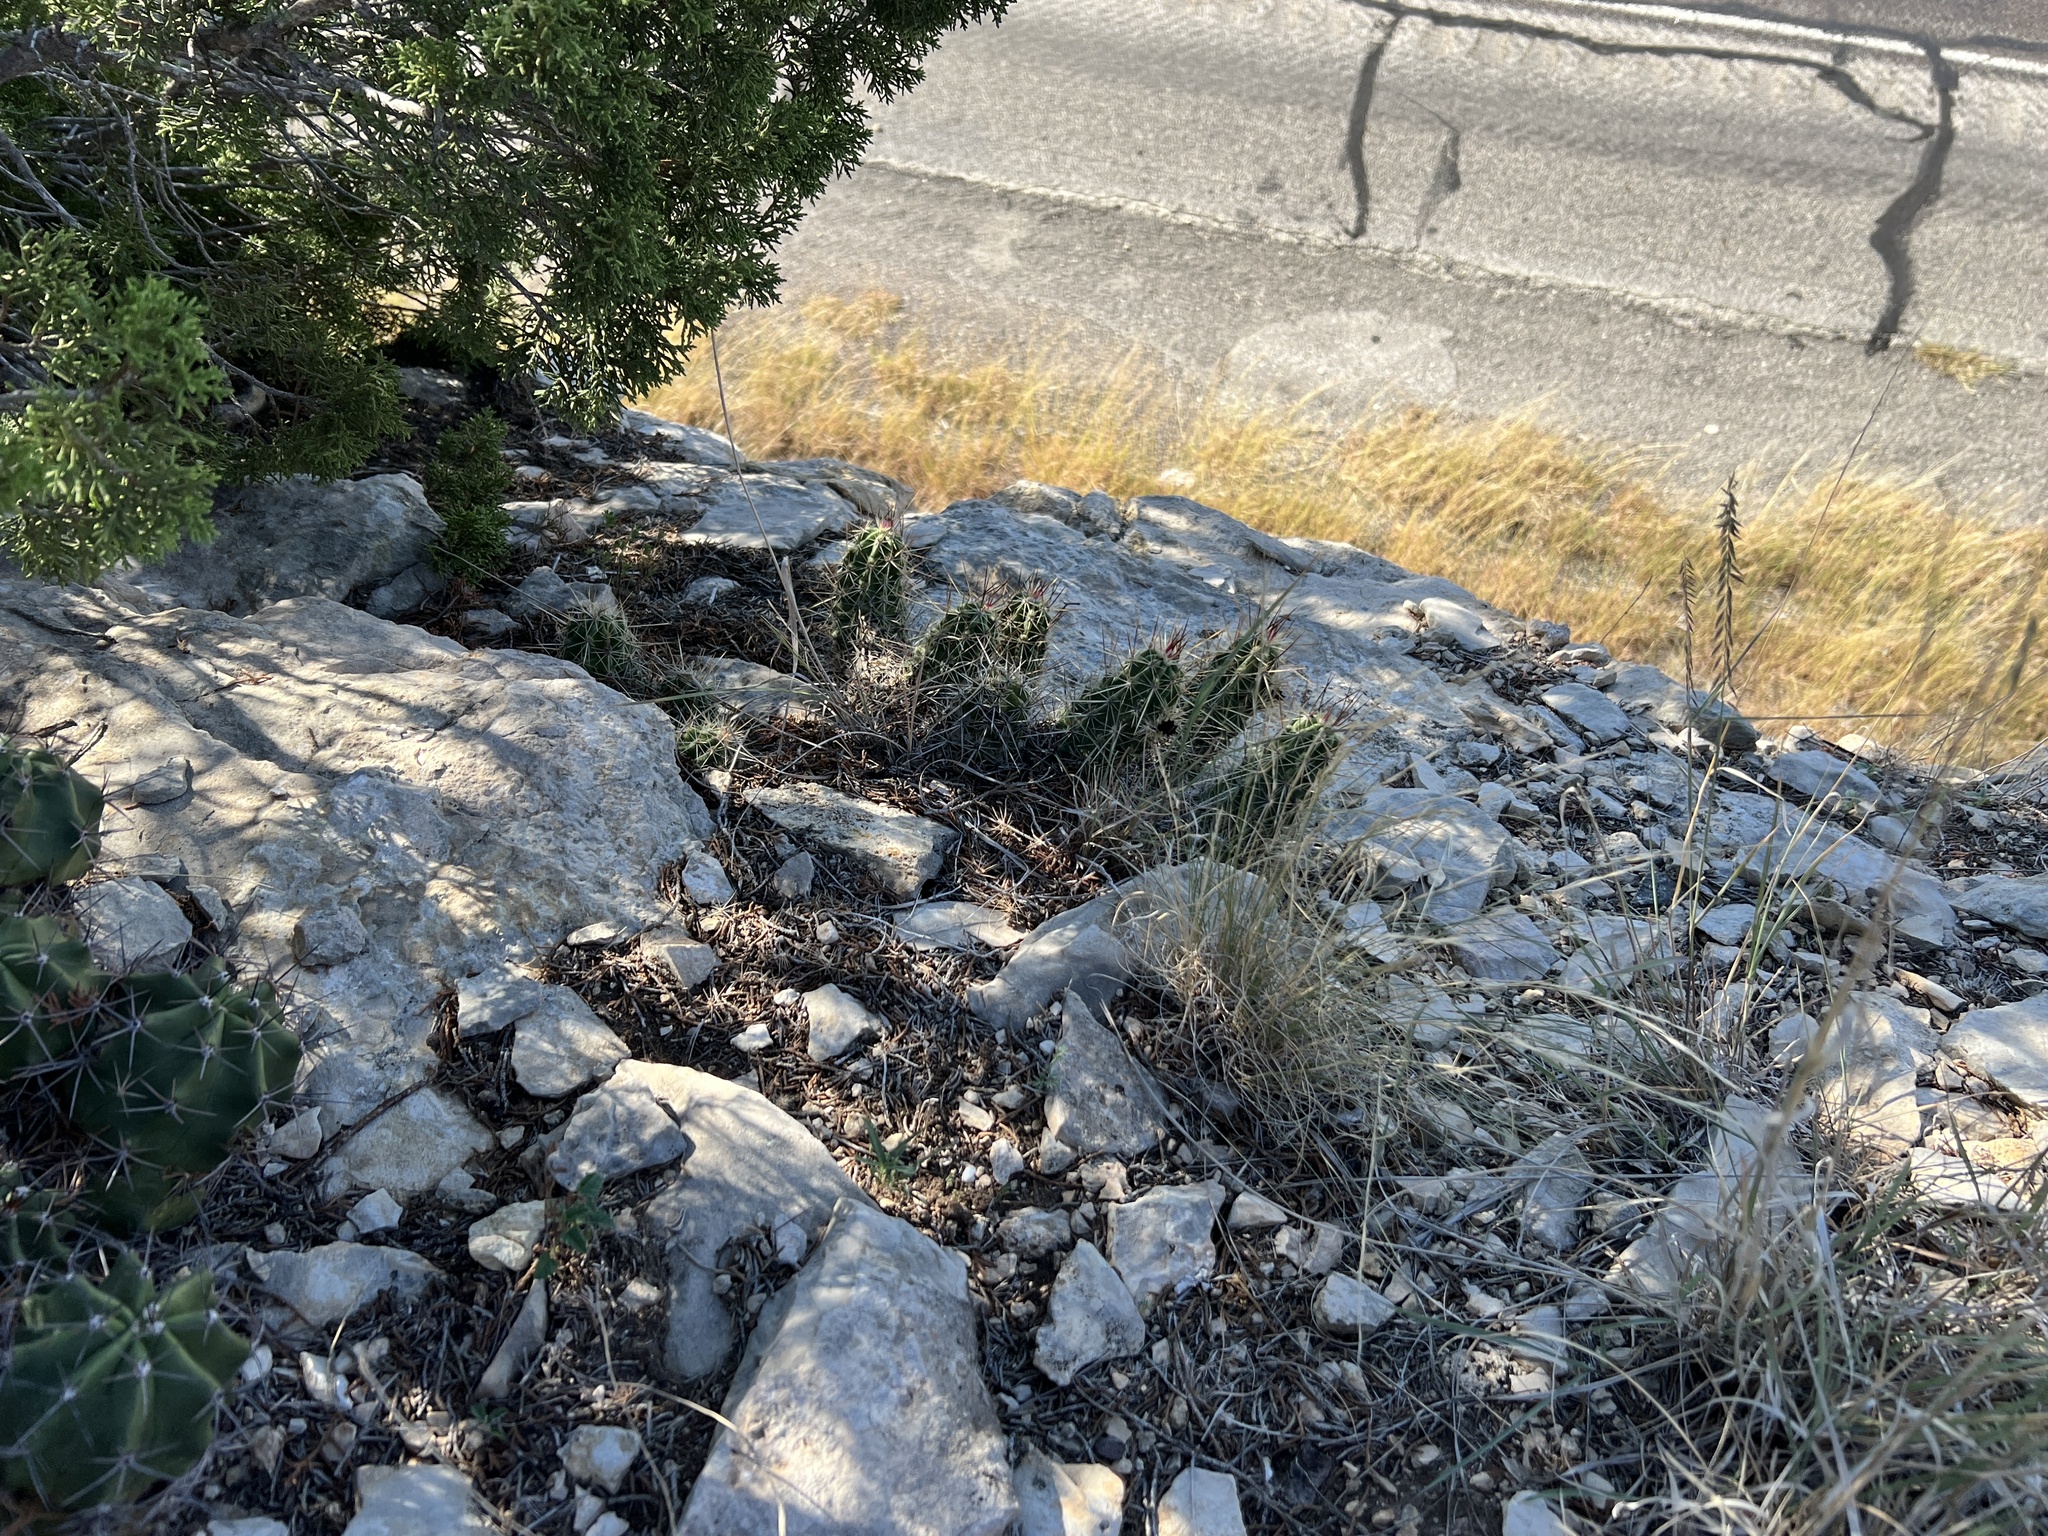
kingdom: Plantae
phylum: Tracheophyta
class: Magnoliopsida
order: Caryophyllales
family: Cactaceae
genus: Echinocereus
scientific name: Echinocereus enneacanthus
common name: Pitaya
